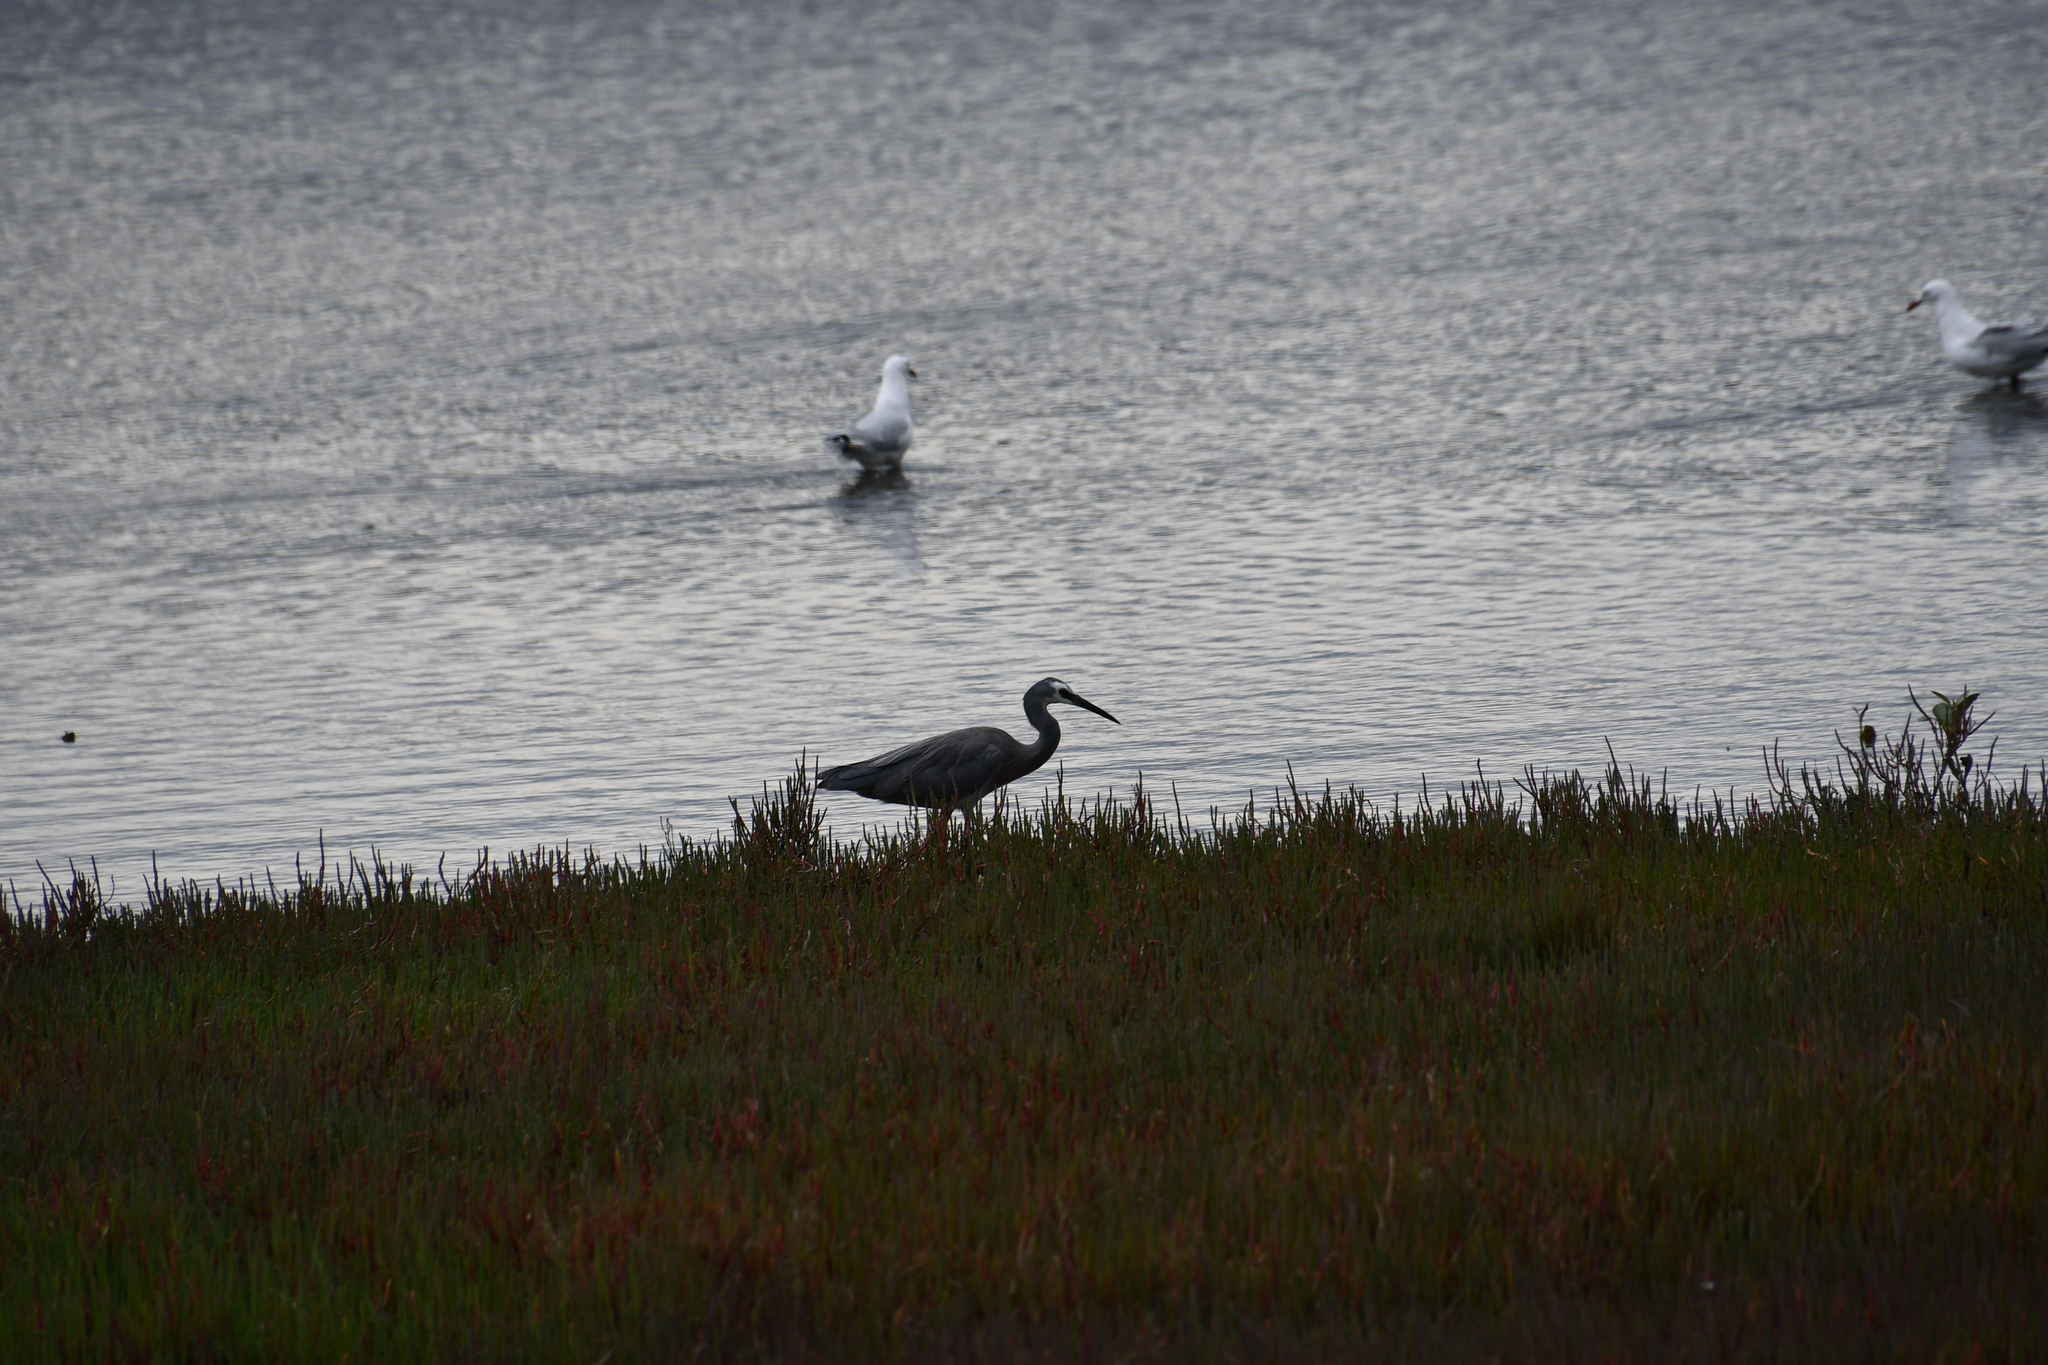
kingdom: Animalia
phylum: Chordata
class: Aves
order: Pelecaniformes
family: Ardeidae
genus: Egretta
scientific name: Egretta novaehollandiae
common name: White-faced heron
